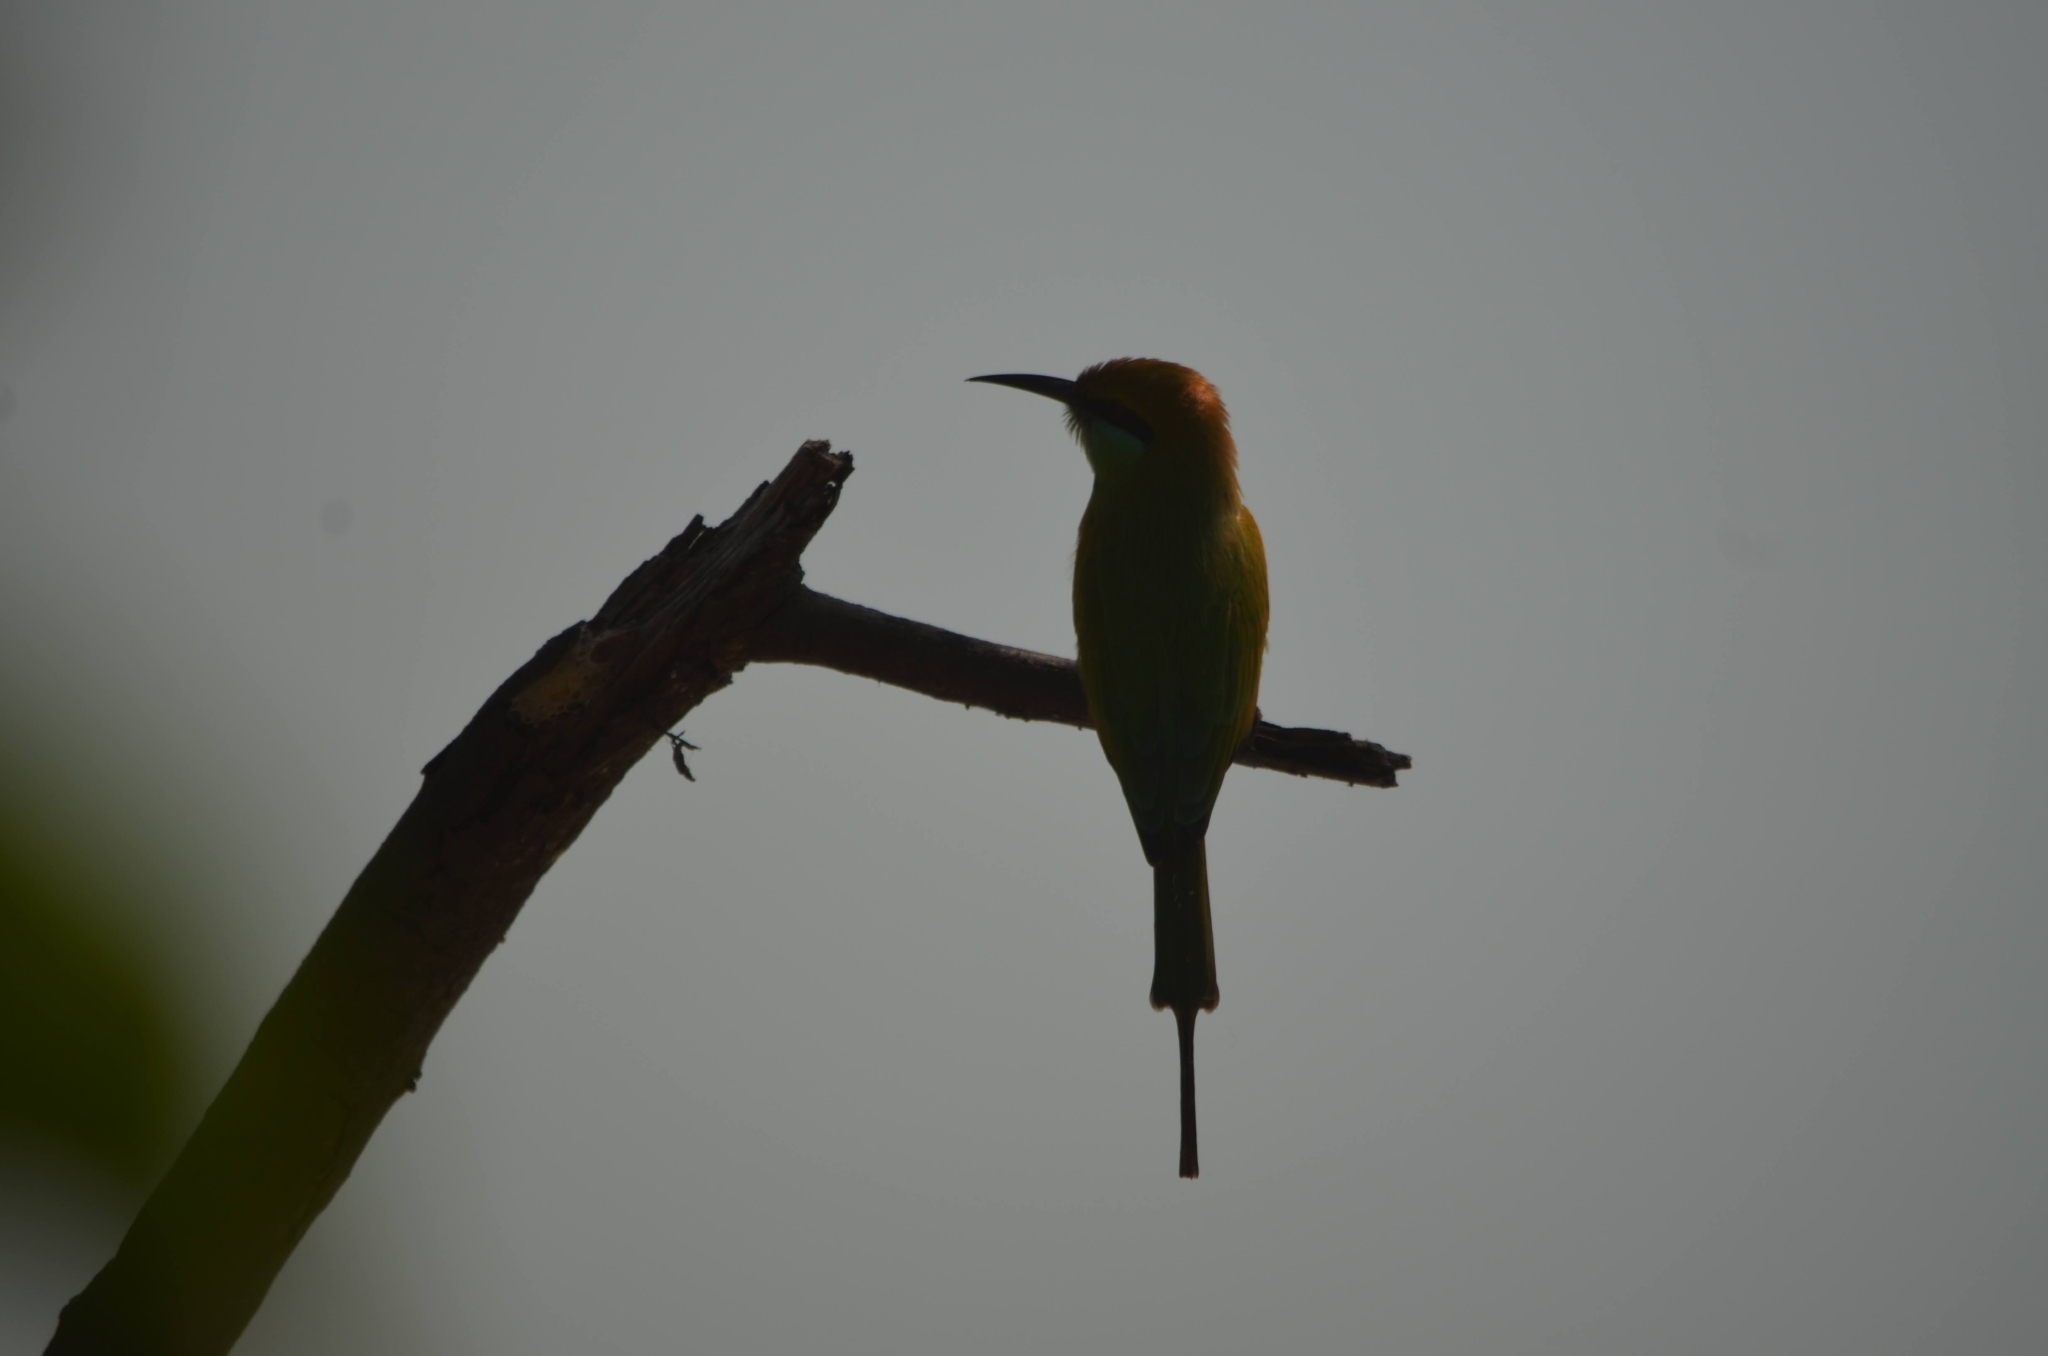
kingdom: Animalia
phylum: Chordata
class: Aves
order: Coraciiformes
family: Meropidae
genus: Merops
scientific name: Merops orientalis
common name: Green bee-eater
